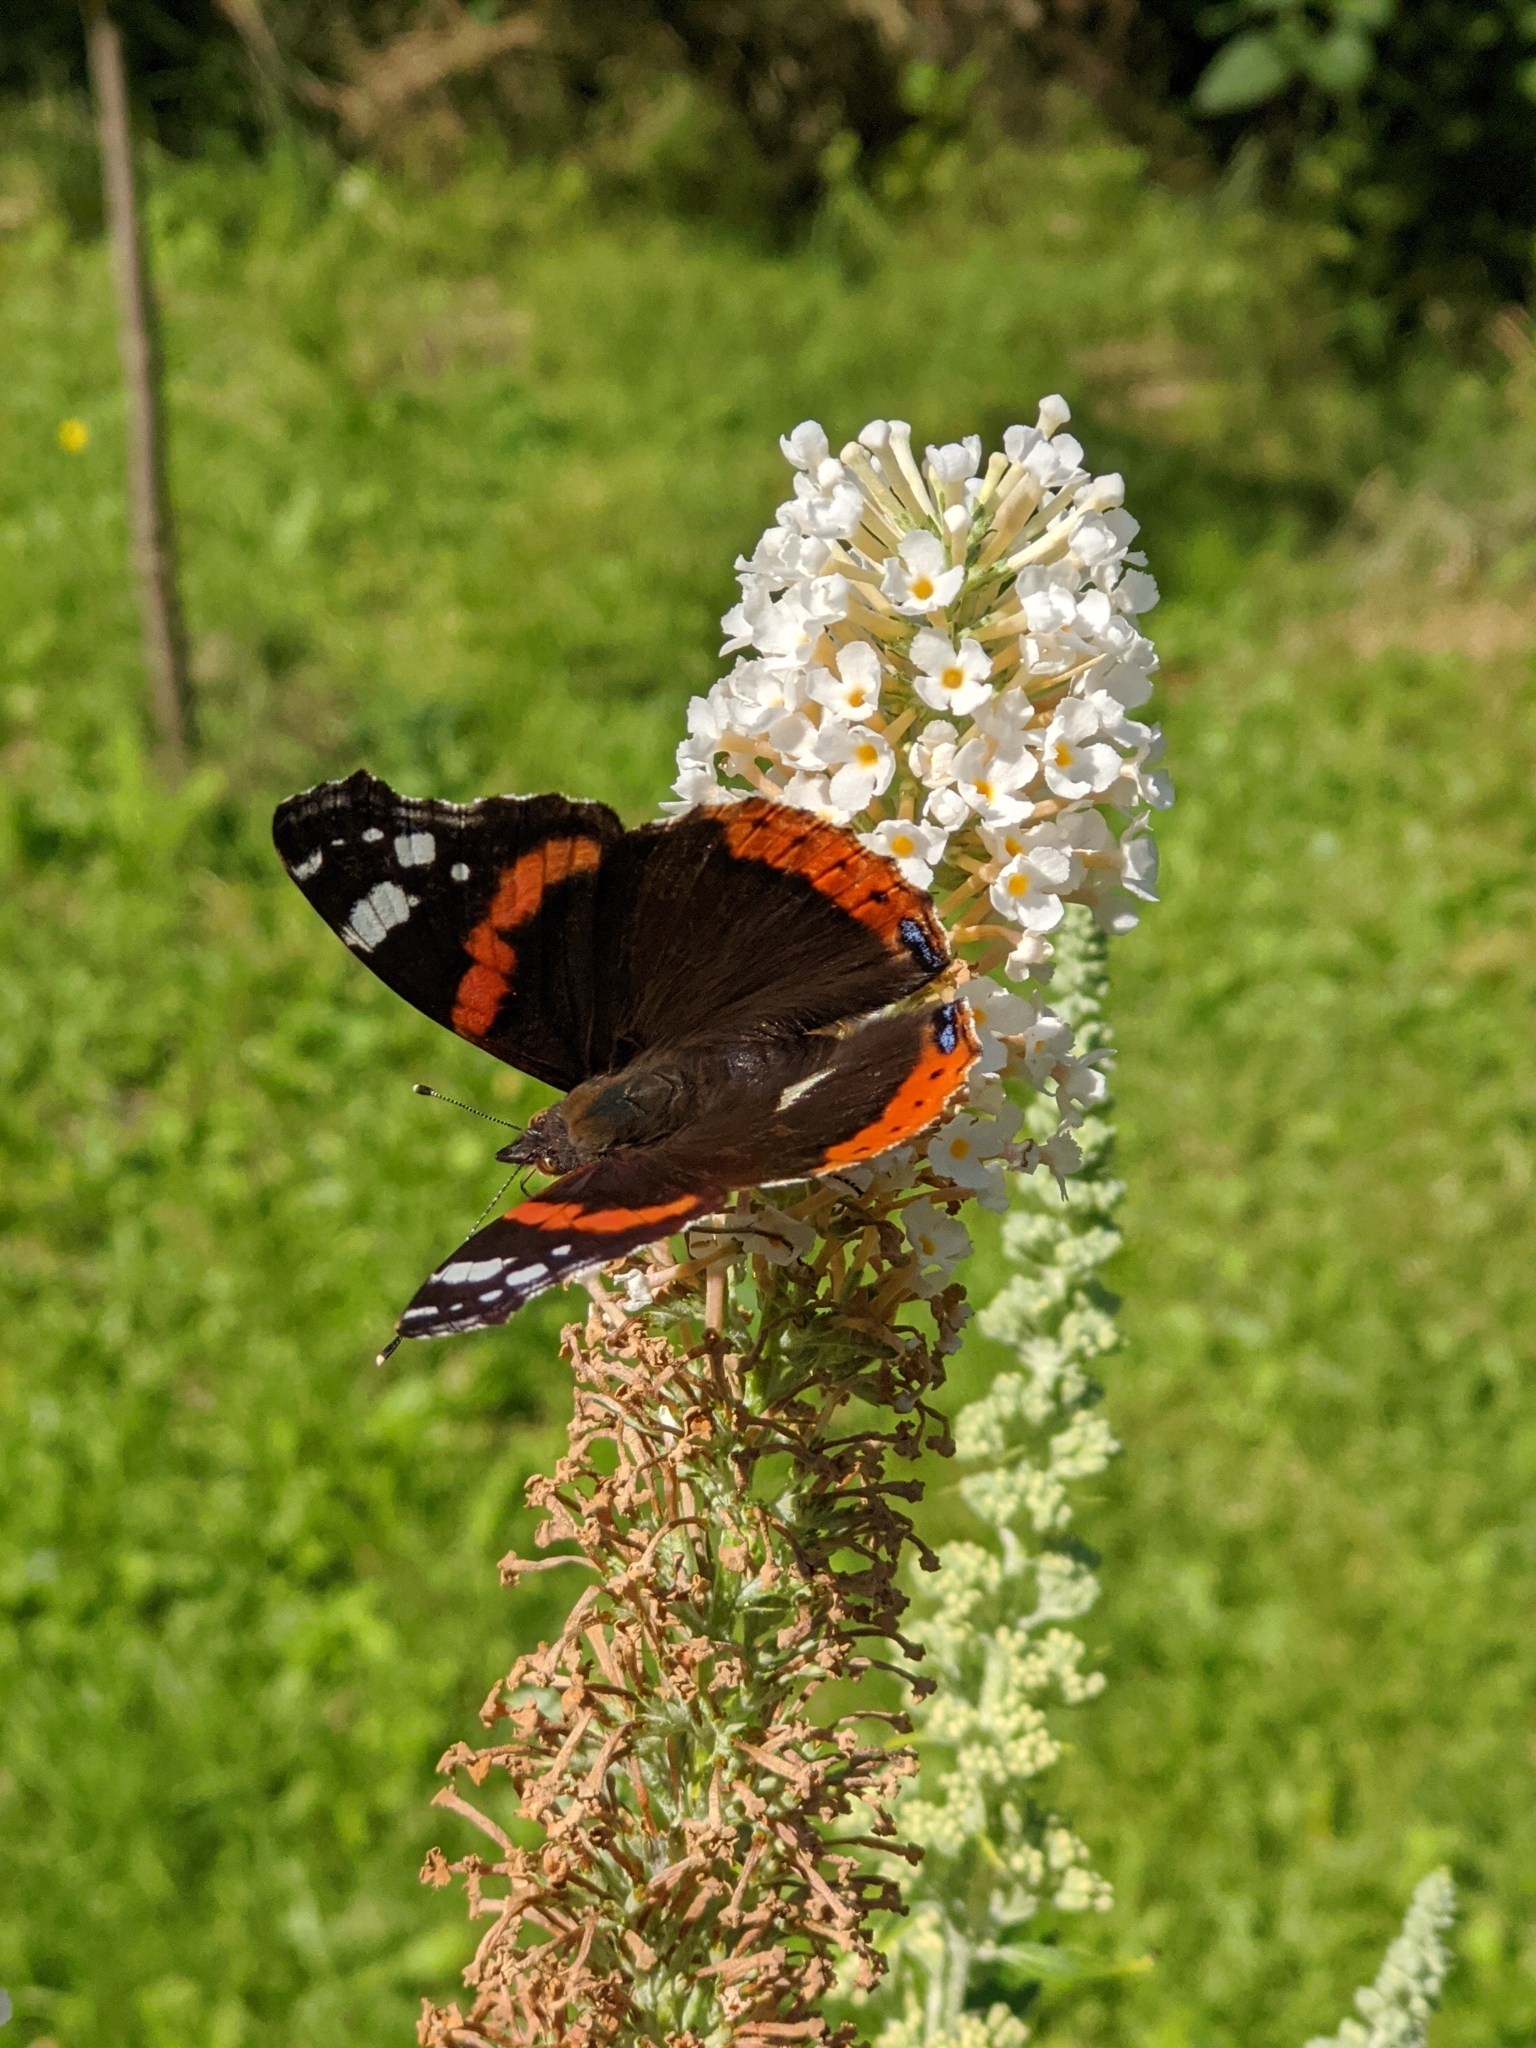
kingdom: Animalia
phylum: Arthropoda
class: Insecta
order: Lepidoptera
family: Nymphalidae
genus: Vanessa
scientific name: Vanessa atalanta
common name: Red admiral
